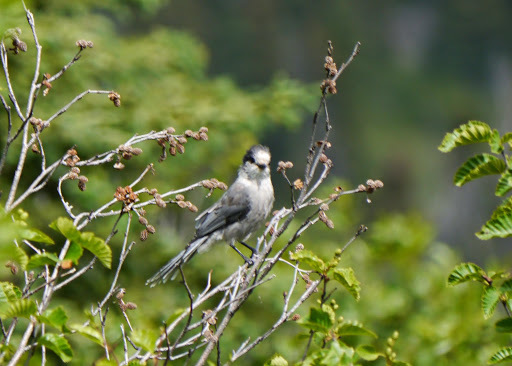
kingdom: Animalia
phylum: Chordata
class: Aves
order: Passeriformes
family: Corvidae
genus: Perisoreus
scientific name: Perisoreus canadensis
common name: Gray jay
